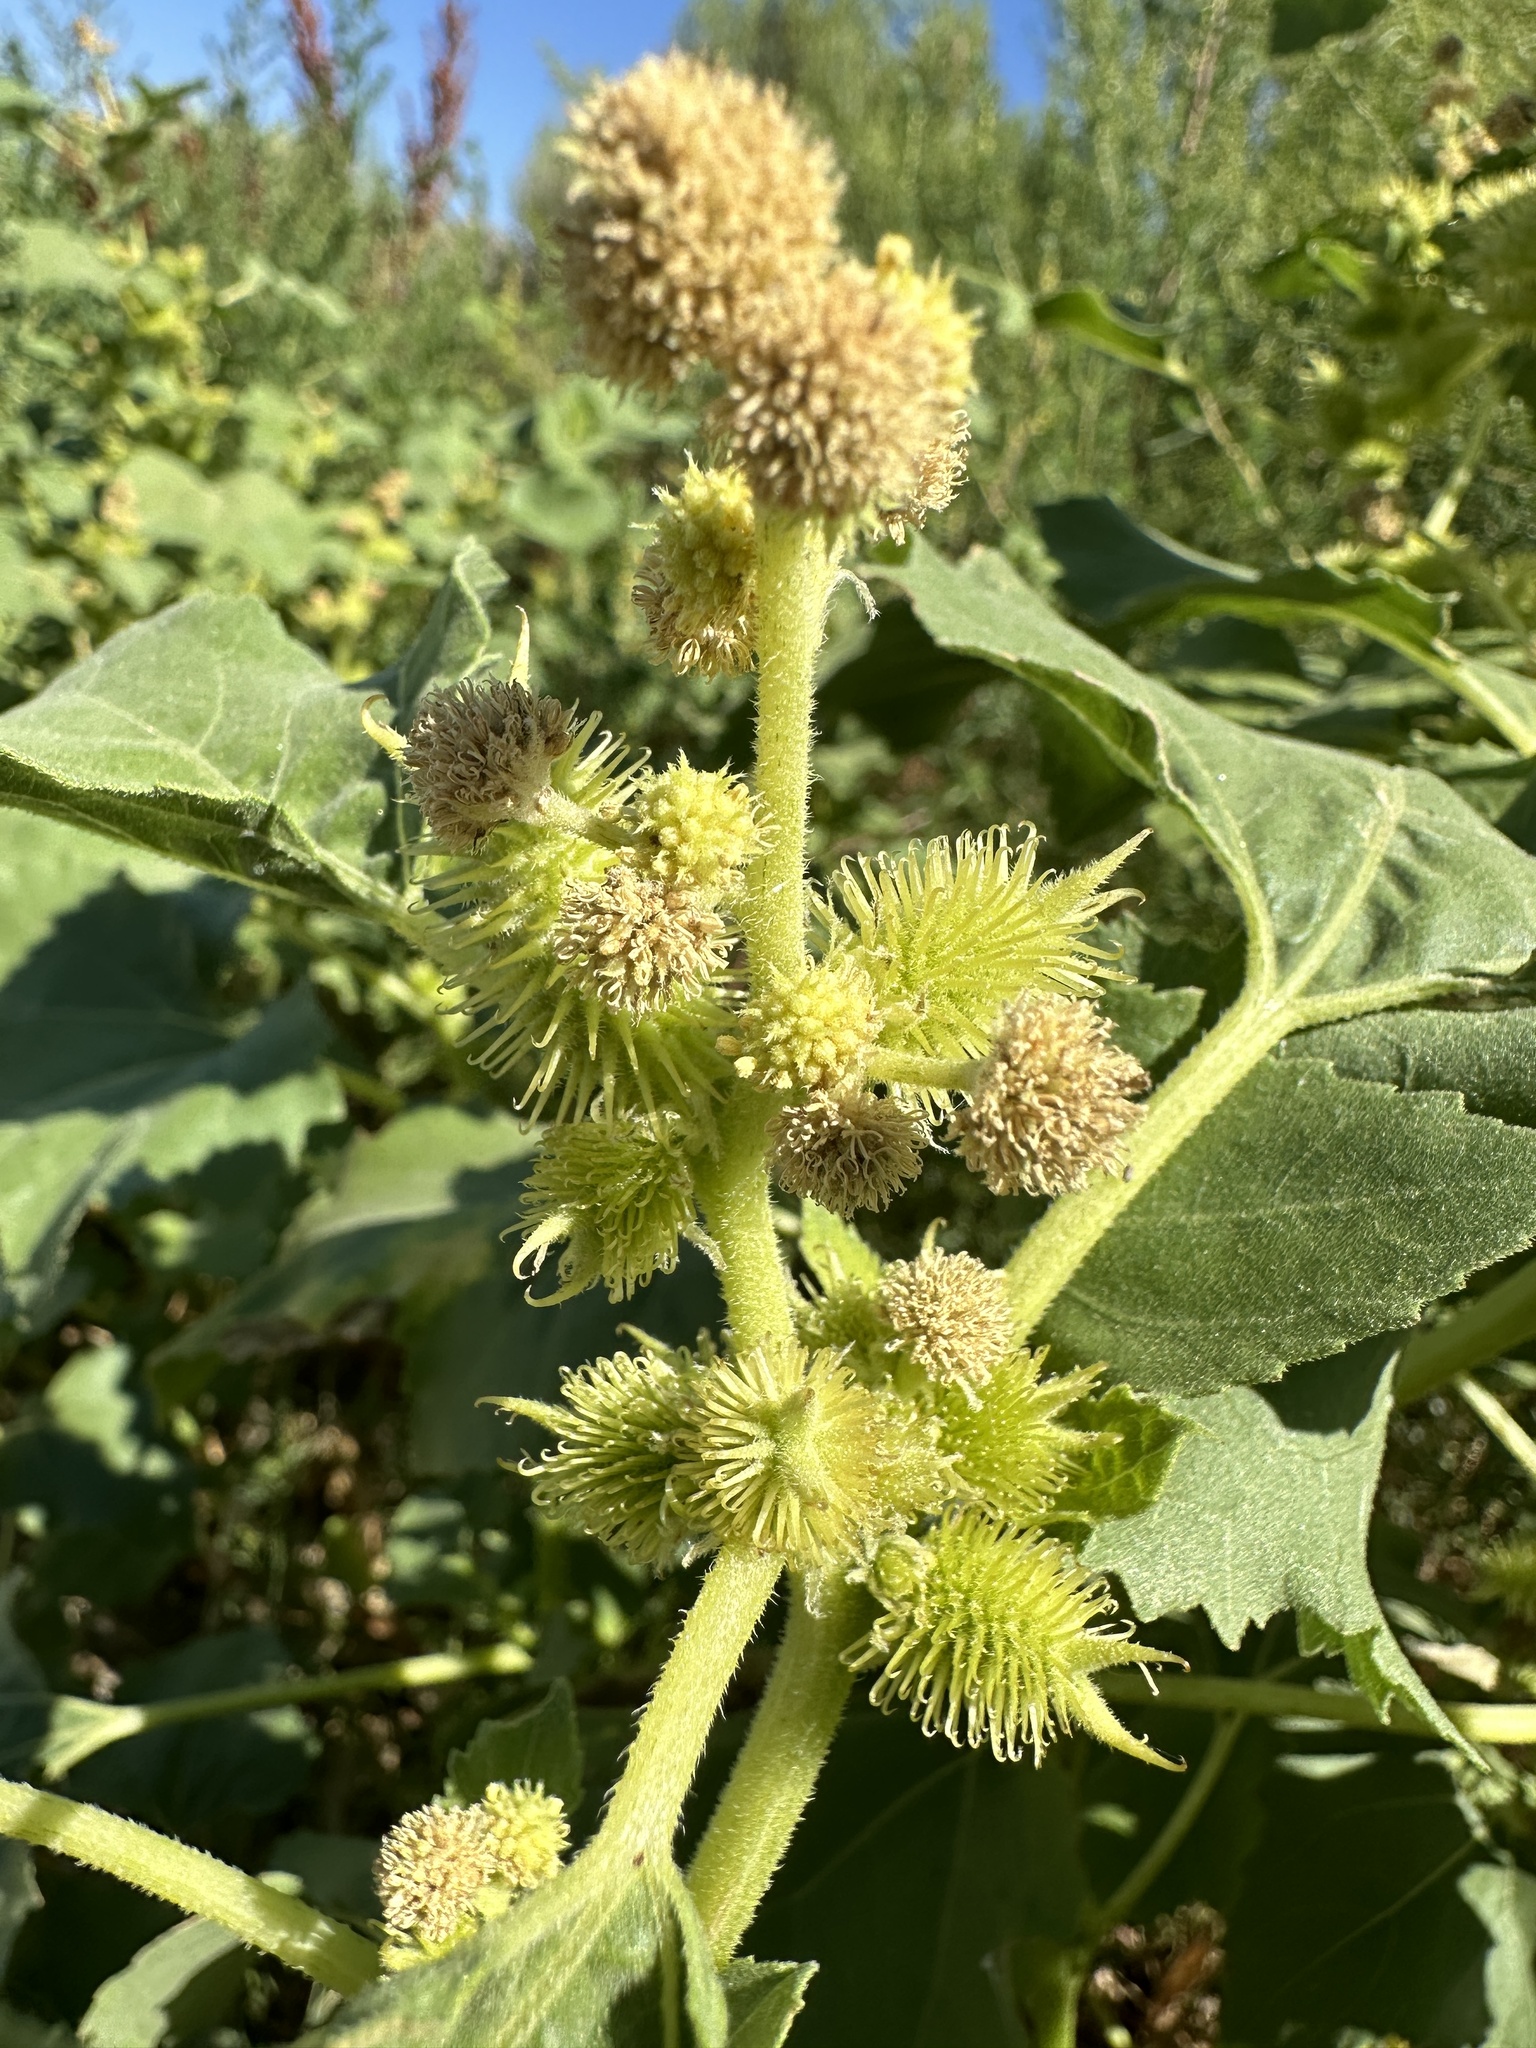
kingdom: Plantae
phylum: Tracheophyta
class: Magnoliopsida
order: Asterales
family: Asteraceae
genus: Xanthium
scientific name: Xanthium strumarium
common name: Rough cocklebur
